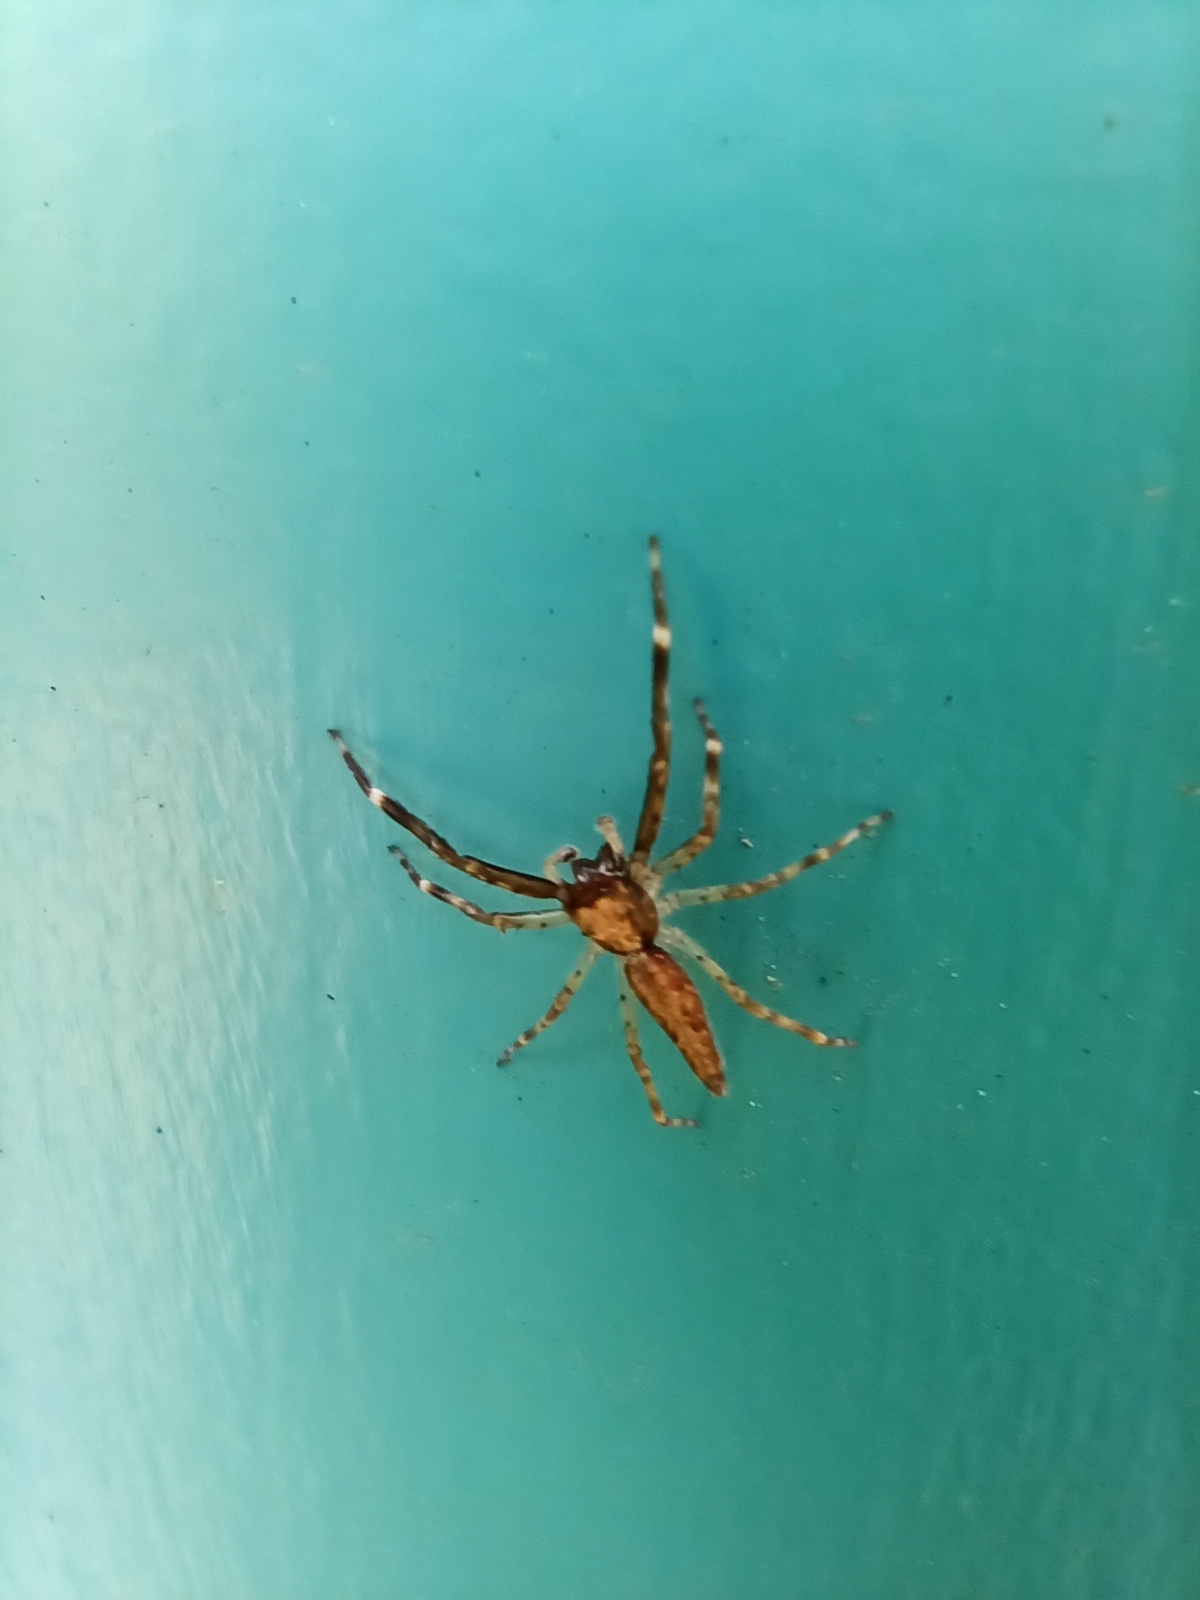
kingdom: Animalia
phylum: Arthropoda
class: Arachnida
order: Araneae
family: Salticidae
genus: Helpis
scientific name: Helpis minitabunda
